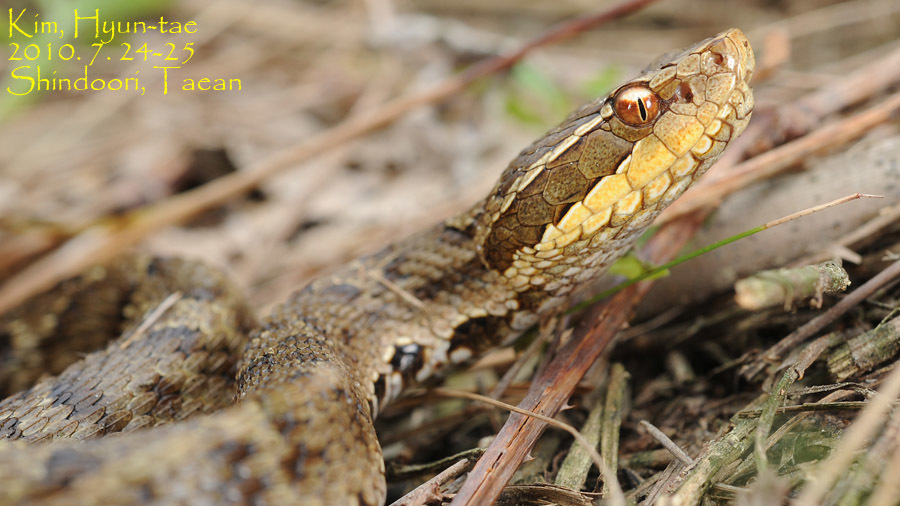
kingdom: Animalia
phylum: Chordata
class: Squamata
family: Viperidae
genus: Gloydius
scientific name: Gloydius ussuriensis
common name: Ussuri mamushi
